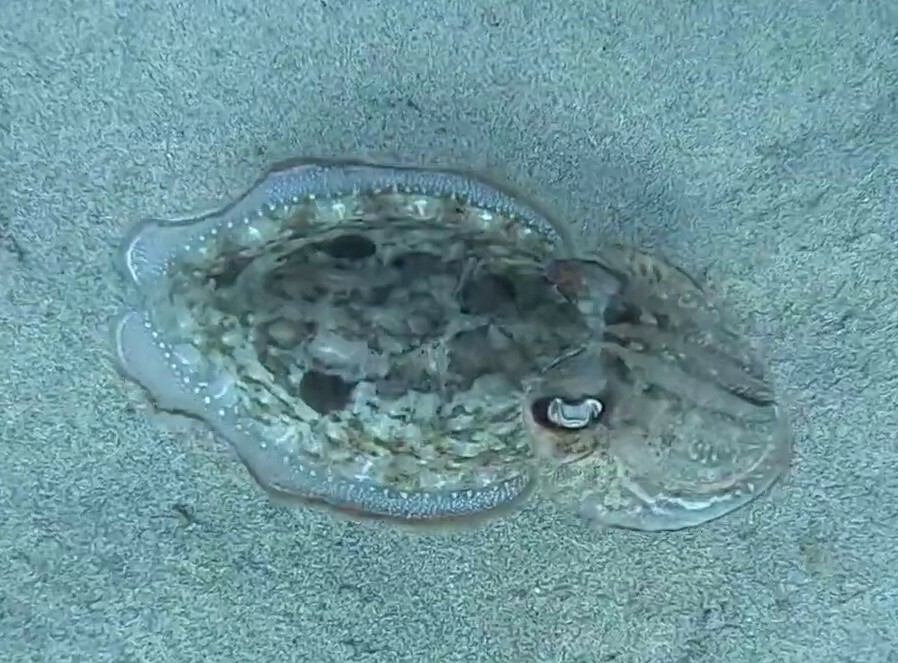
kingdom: Animalia
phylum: Mollusca
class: Cephalopoda
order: Sepiida
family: Sepiidae
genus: Sepia
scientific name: Sepia officinalis
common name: Common cuttlefish
